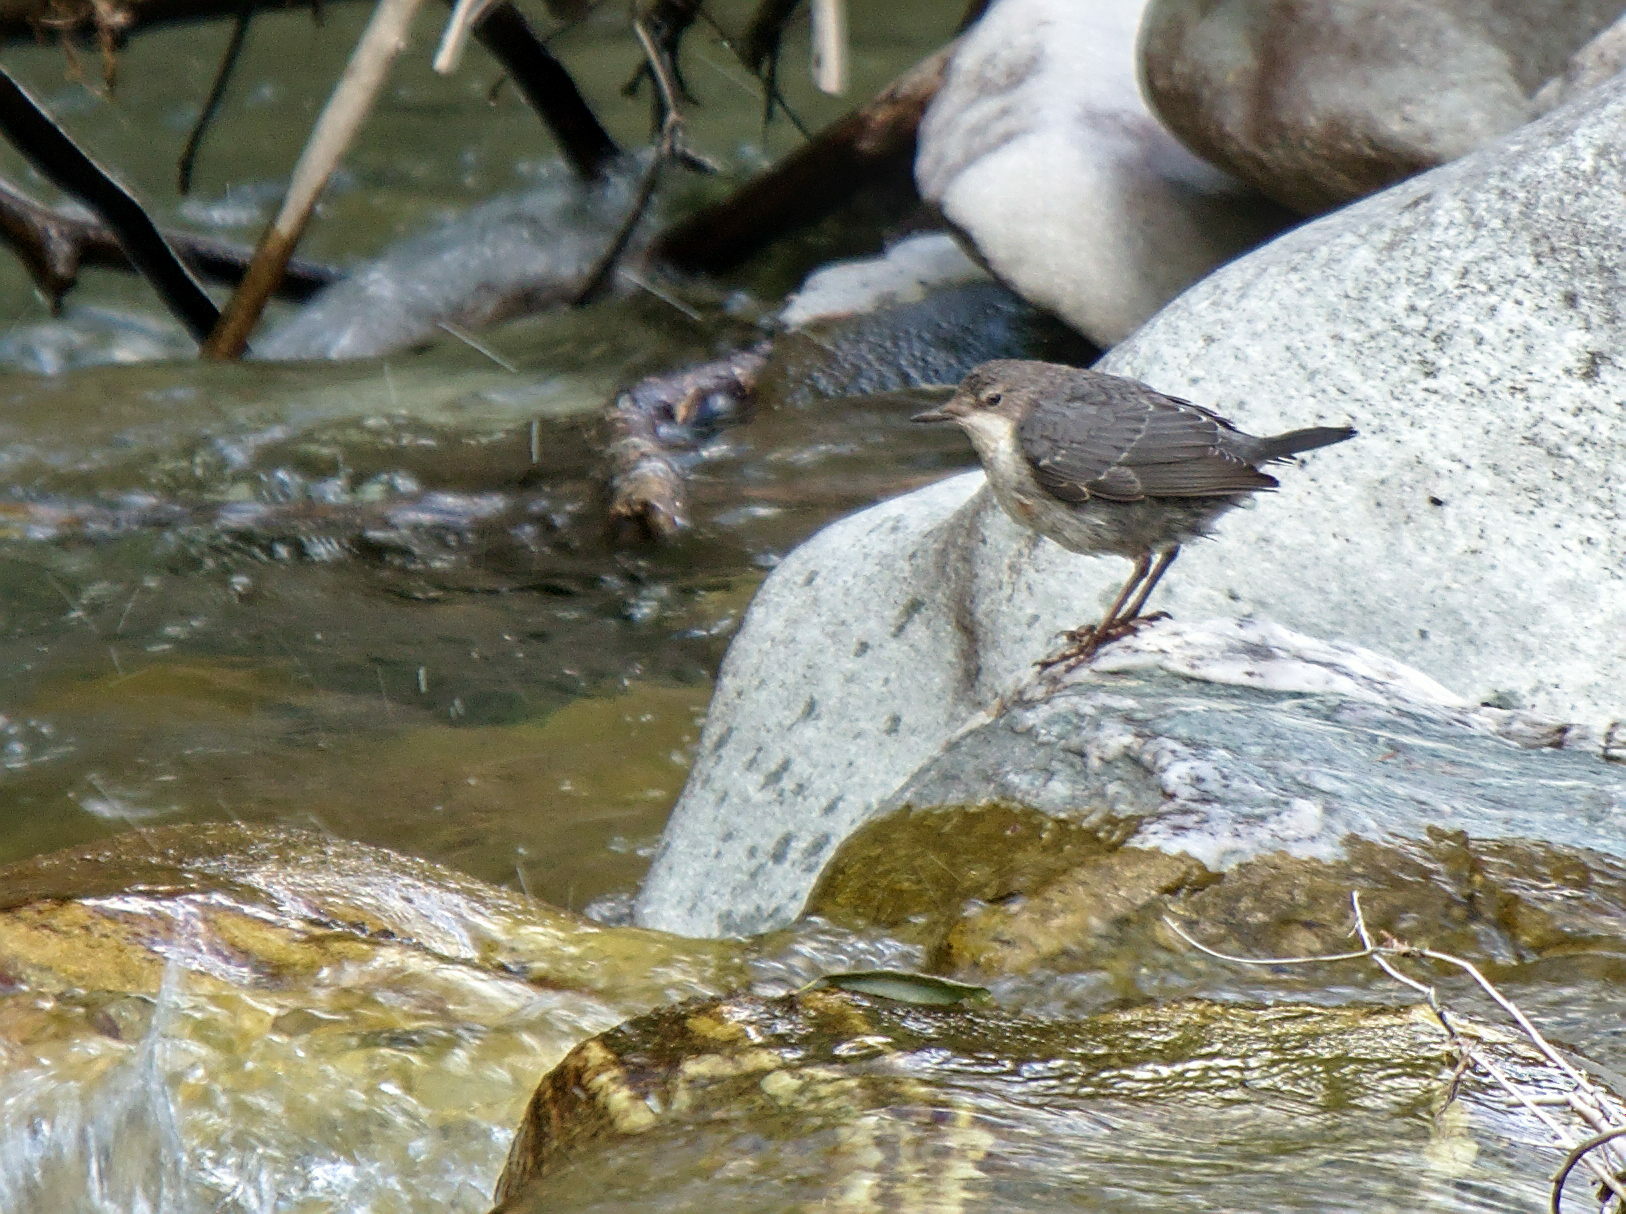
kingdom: Animalia
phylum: Chordata
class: Aves
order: Passeriformes
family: Cinclidae
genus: Cinclus
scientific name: Cinclus cinclus
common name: White-throated dipper
